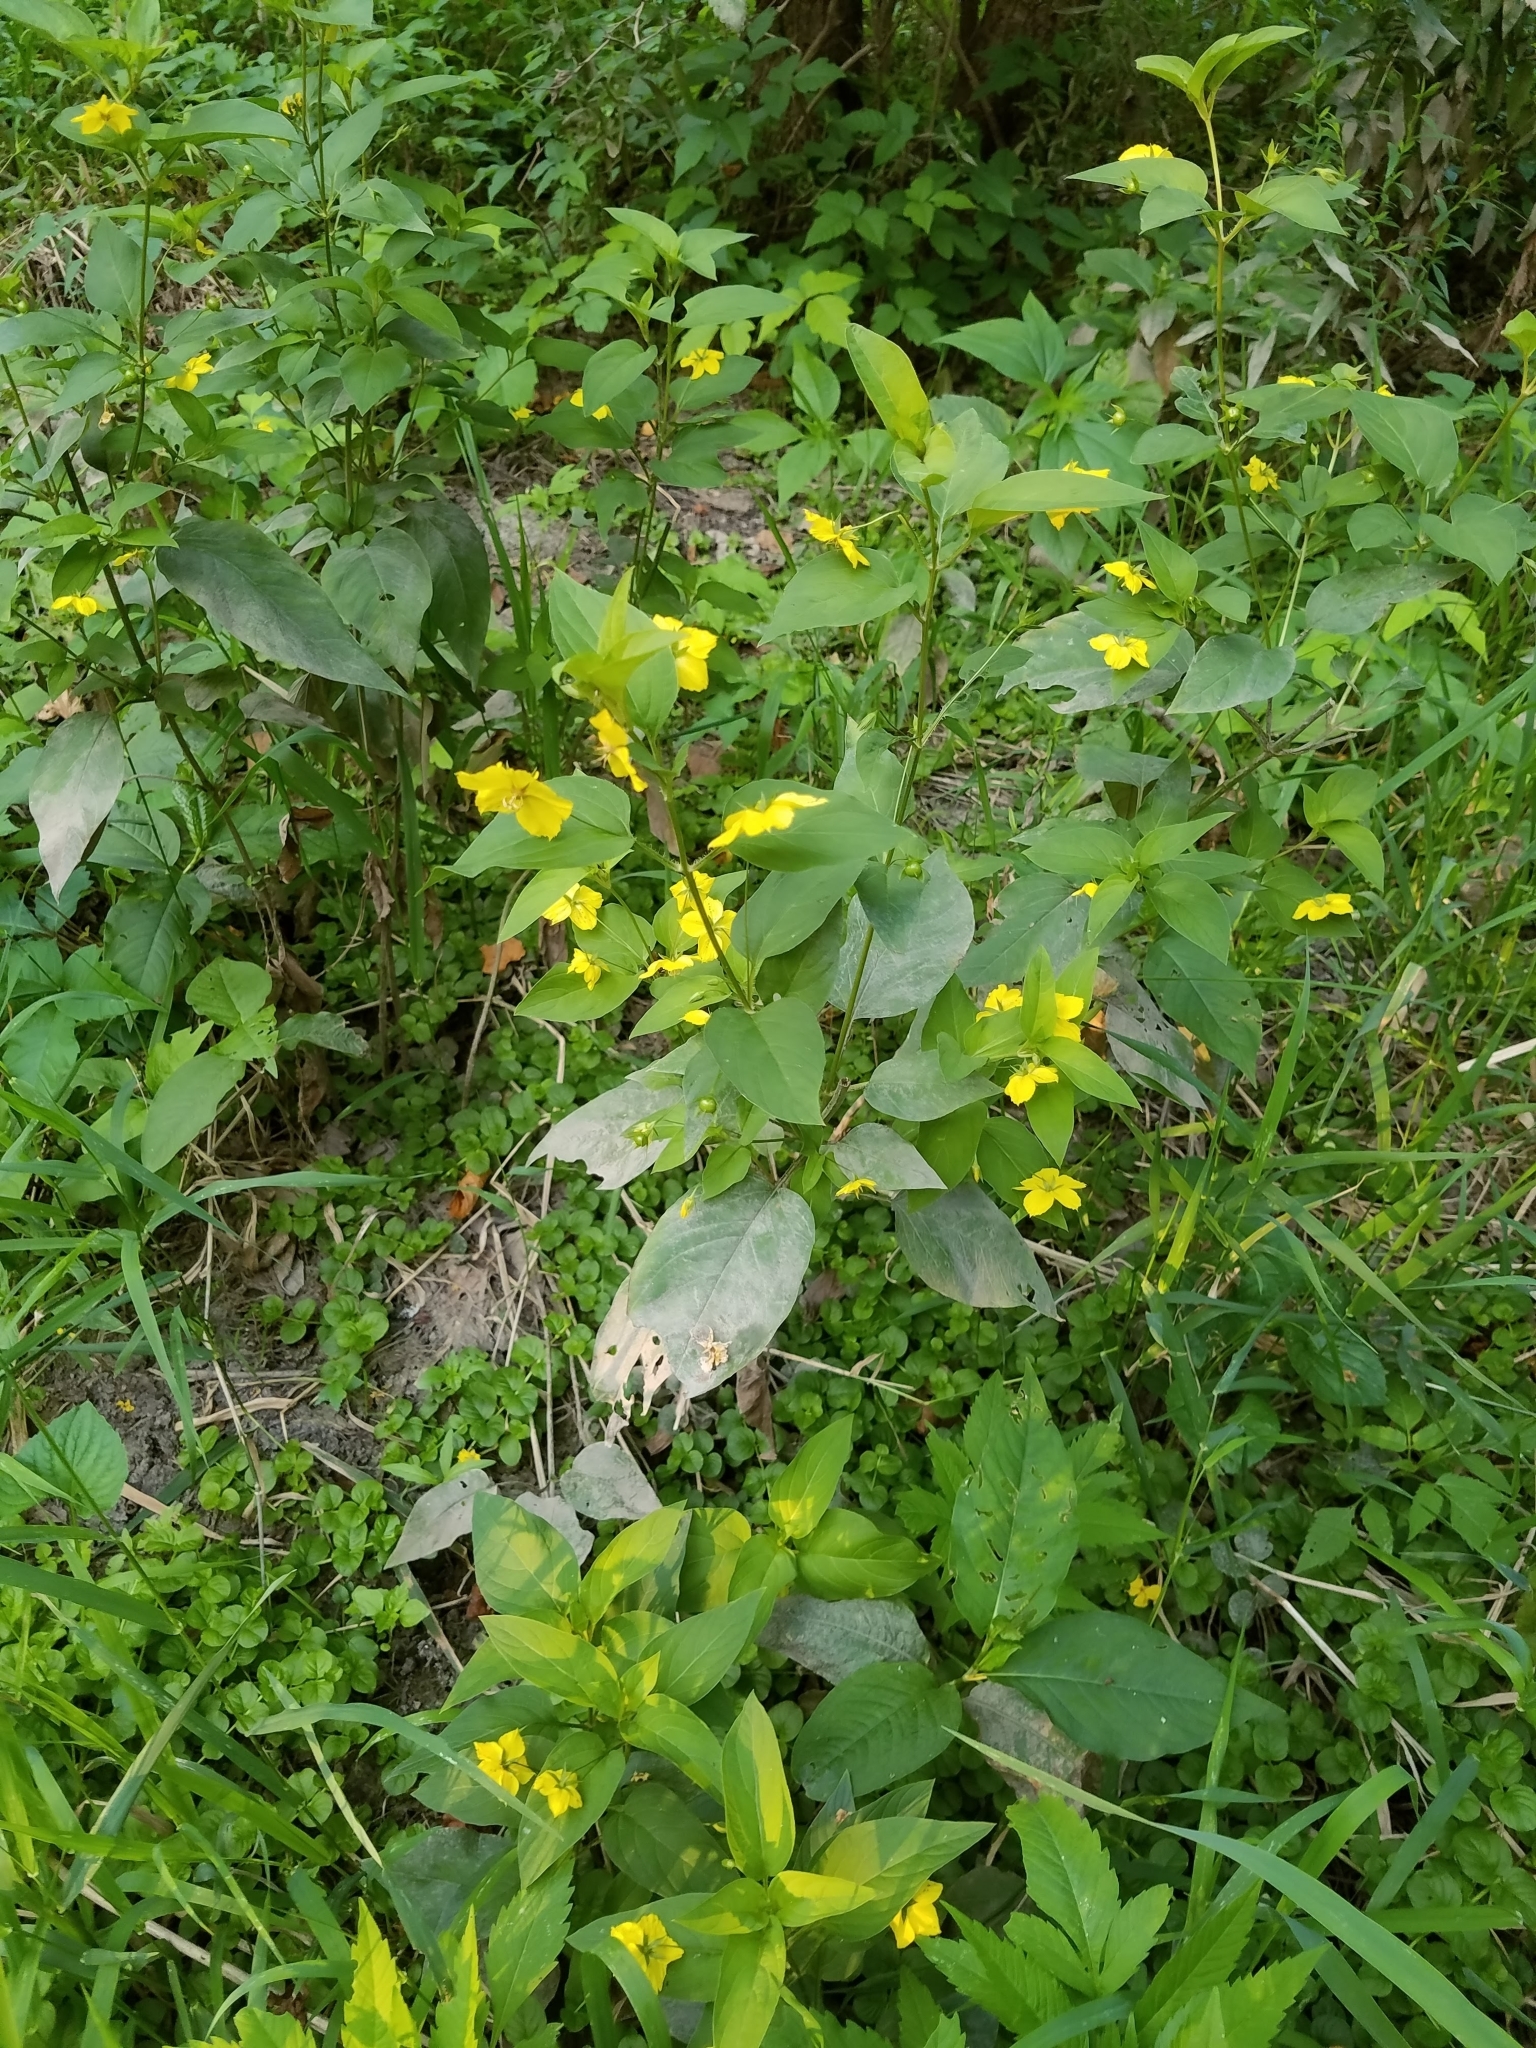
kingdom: Plantae
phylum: Tracheophyta
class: Magnoliopsida
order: Ericales
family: Primulaceae
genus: Lysimachia
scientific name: Lysimachia ciliata
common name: Fringed loosestrife
